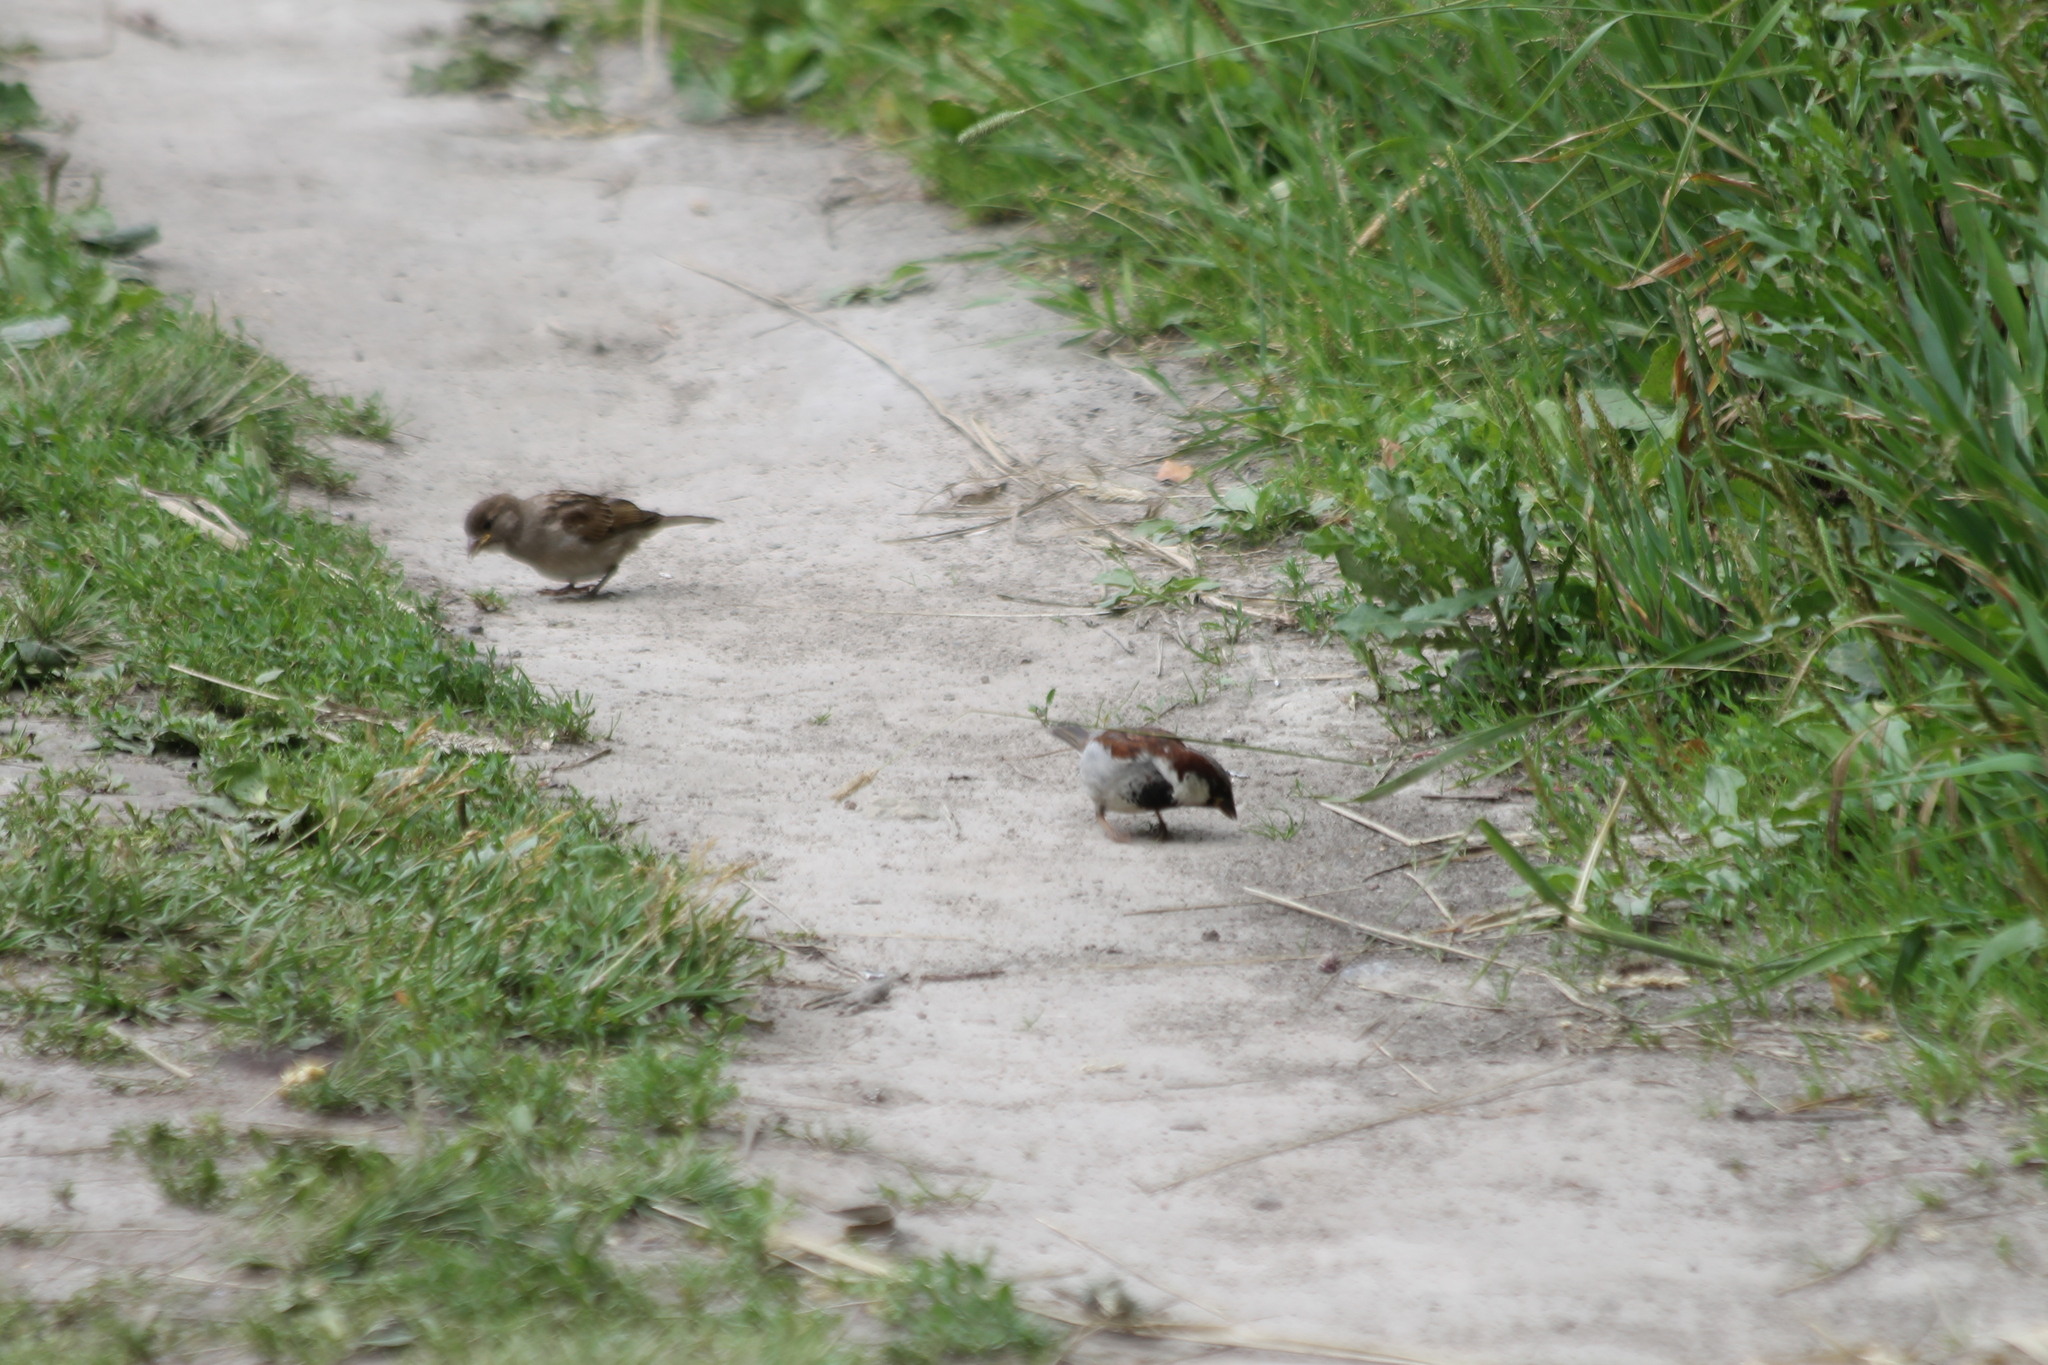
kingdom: Animalia
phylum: Chordata
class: Aves
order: Passeriformes
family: Passeridae
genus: Passer
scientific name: Passer domesticus
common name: House sparrow
